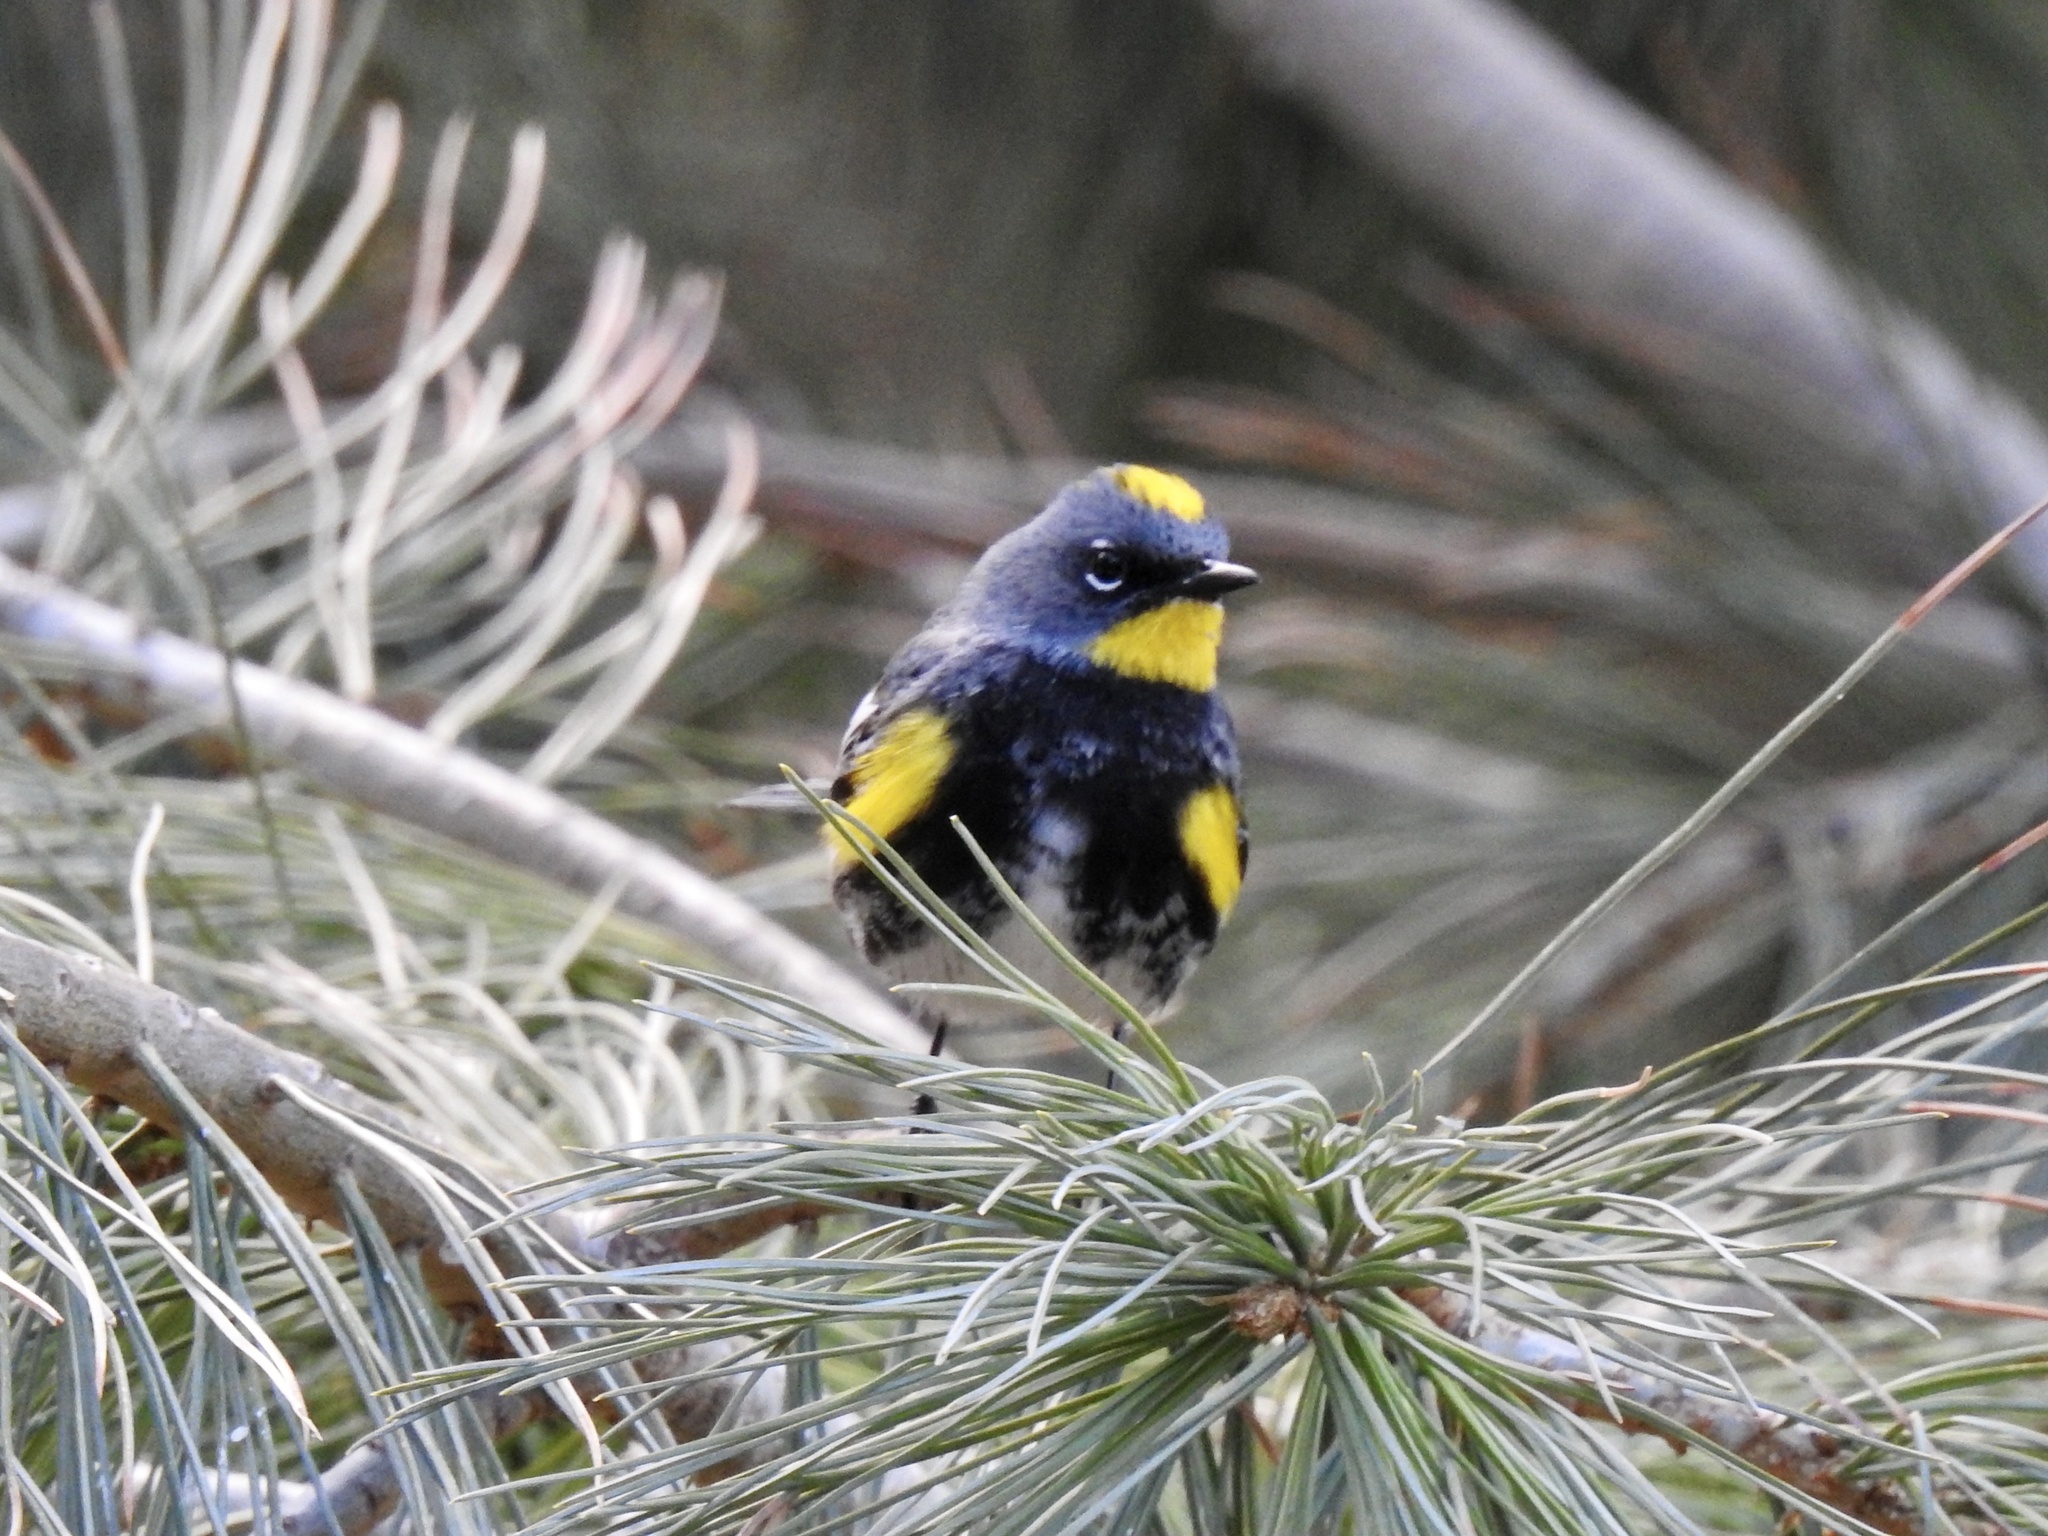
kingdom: Animalia
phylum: Chordata
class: Aves
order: Passeriformes
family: Parulidae
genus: Setophaga
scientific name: Setophaga auduboni
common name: Audubon's warbler
